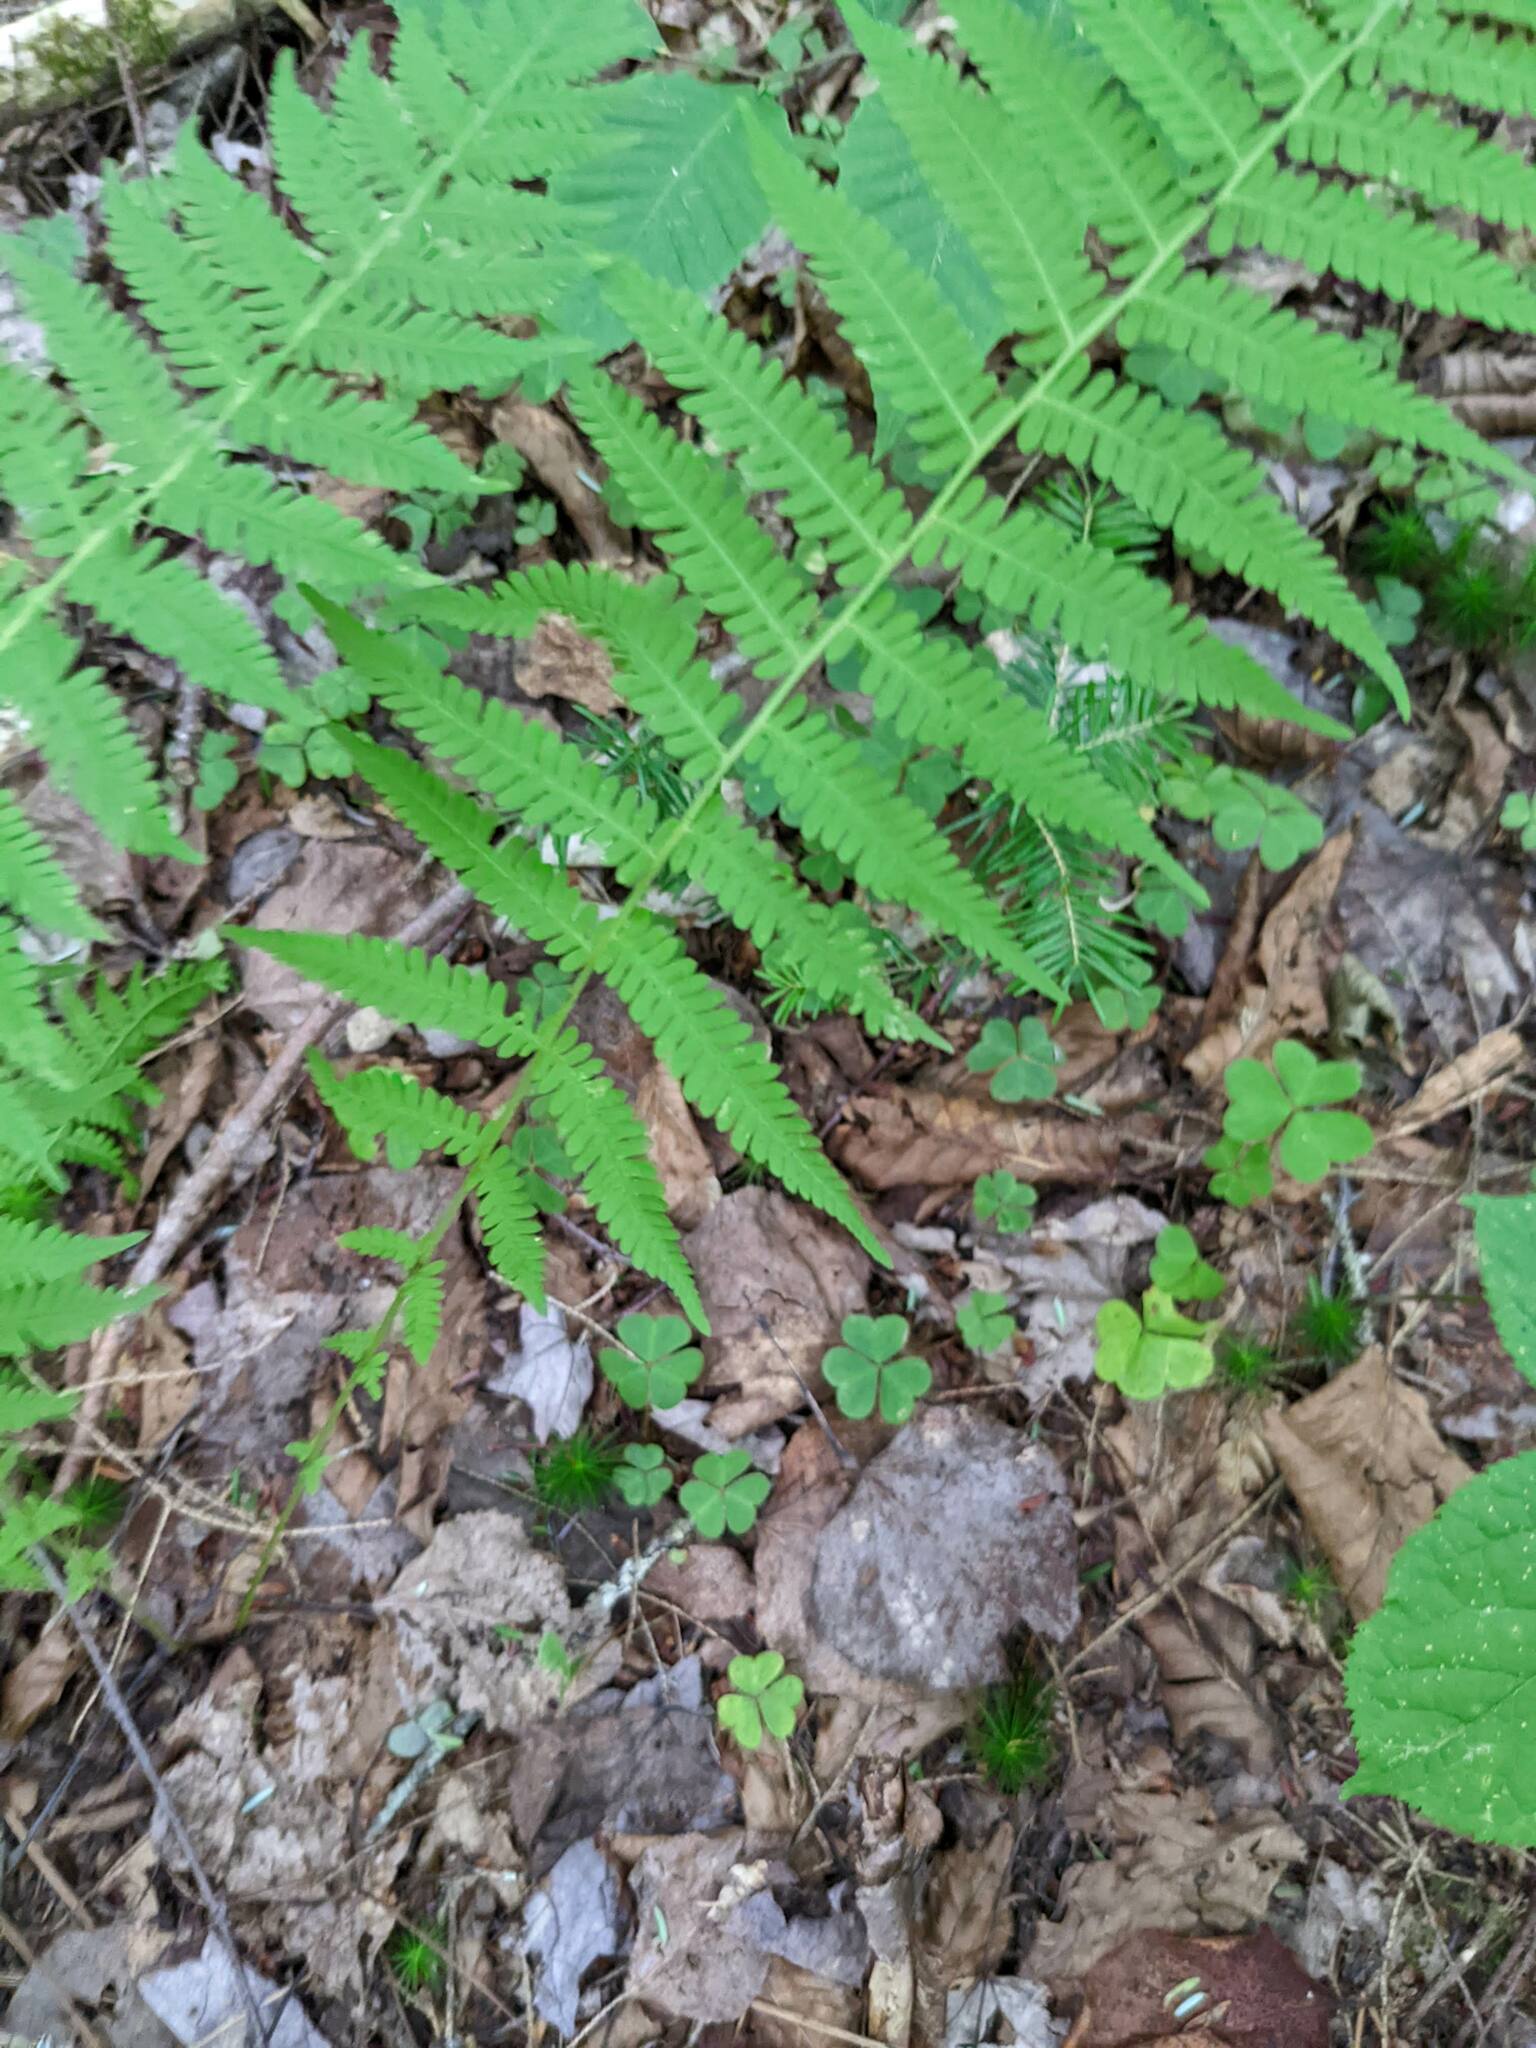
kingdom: Plantae
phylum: Tracheophyta
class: Polypodiopsida
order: Polypodiales
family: Thelypteridaceae
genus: Amauropelta
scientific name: Amauropelta noveboracensis
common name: New york fern
